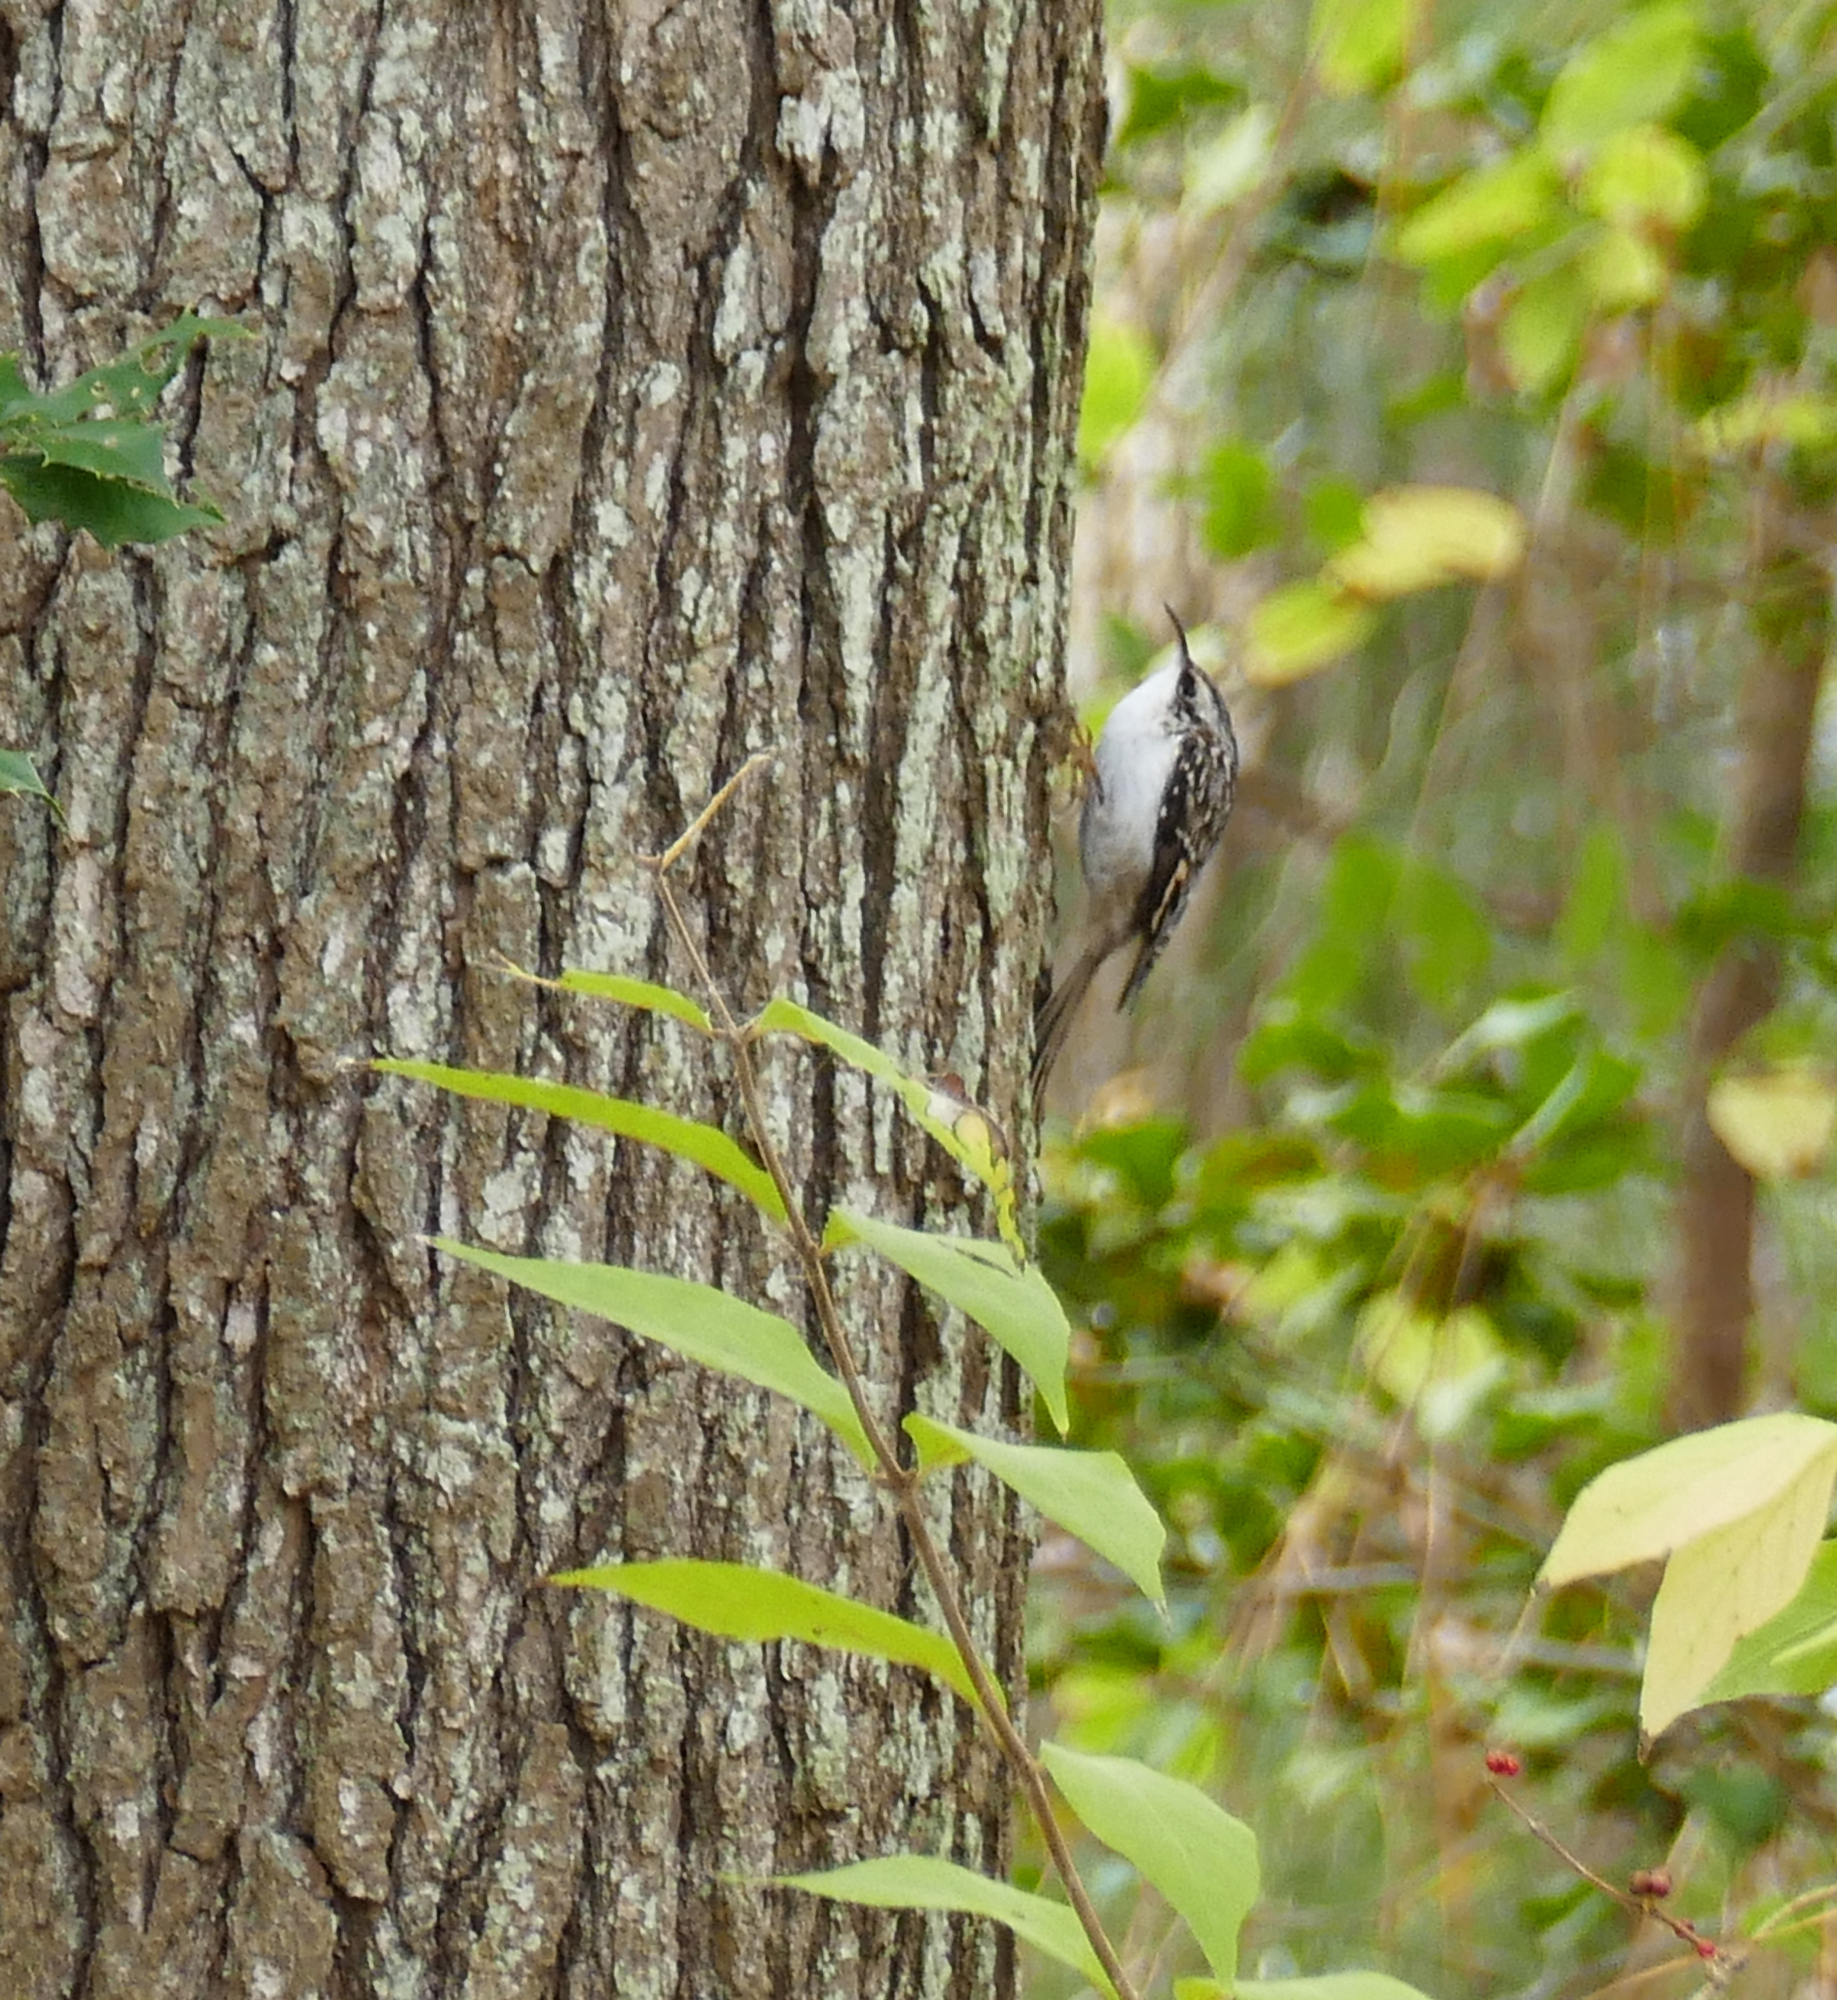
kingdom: Animalia
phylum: Chordata
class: Aves
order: Passeriformes
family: Certhiidae
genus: Certhia
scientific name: Certhia americana
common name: Brown creeper
